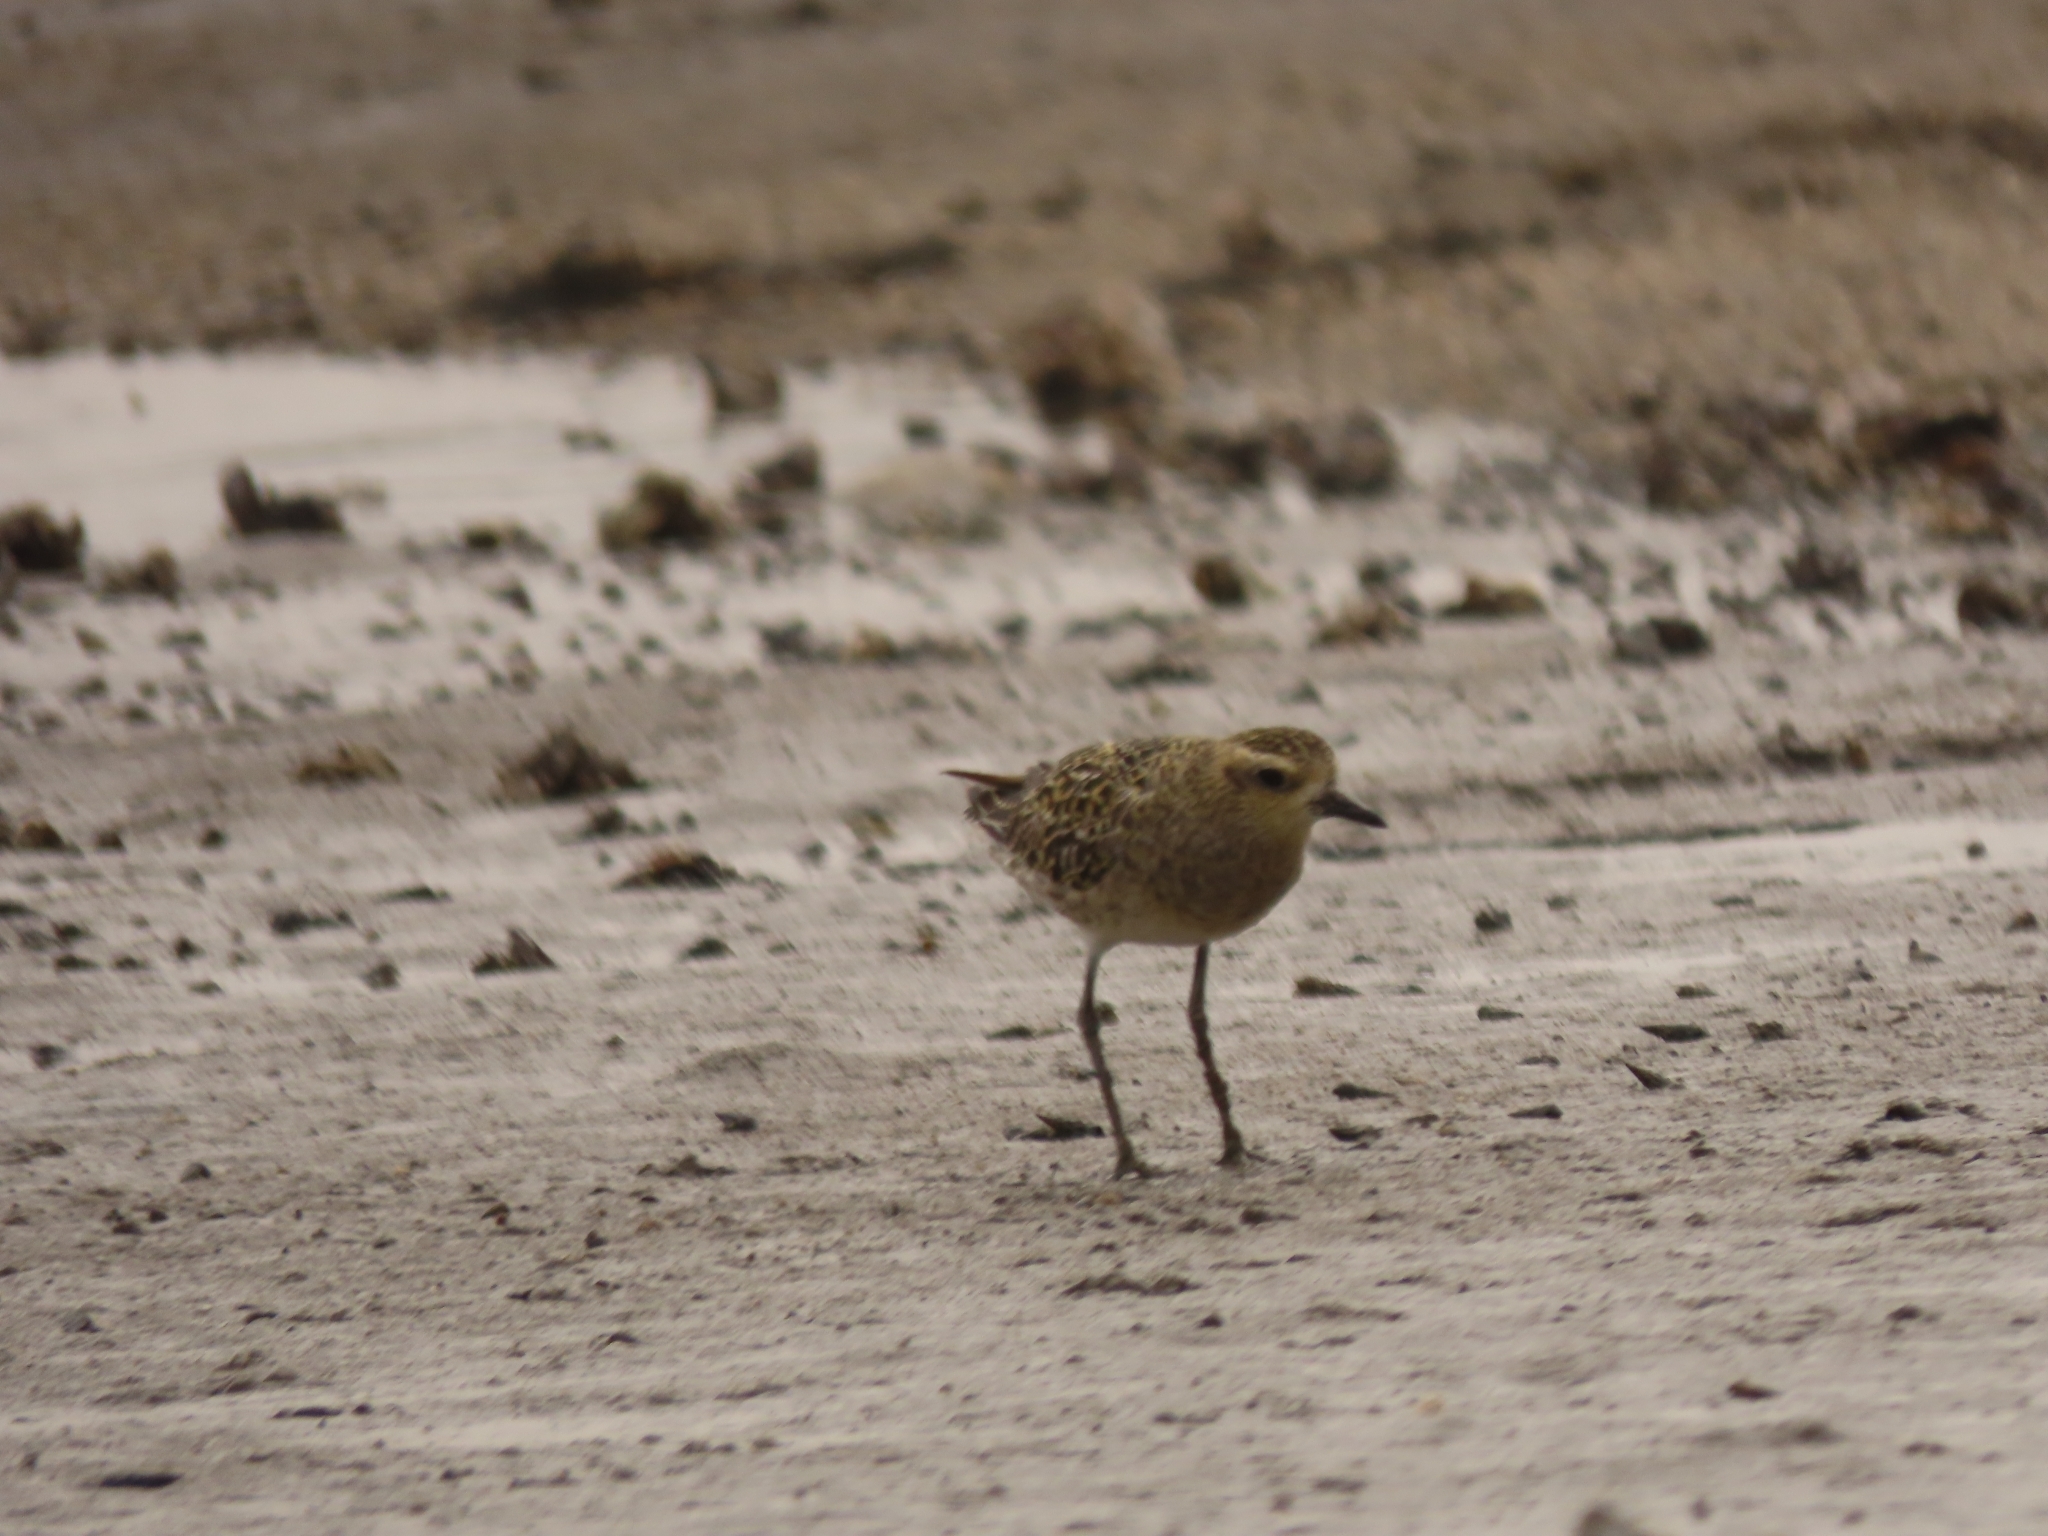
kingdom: Animalia
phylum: Chordata
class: Aves
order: Charadriiformes
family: Charadriidae
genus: Pluvialis
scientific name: Pluvialis fulva
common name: Pacific golden plover
